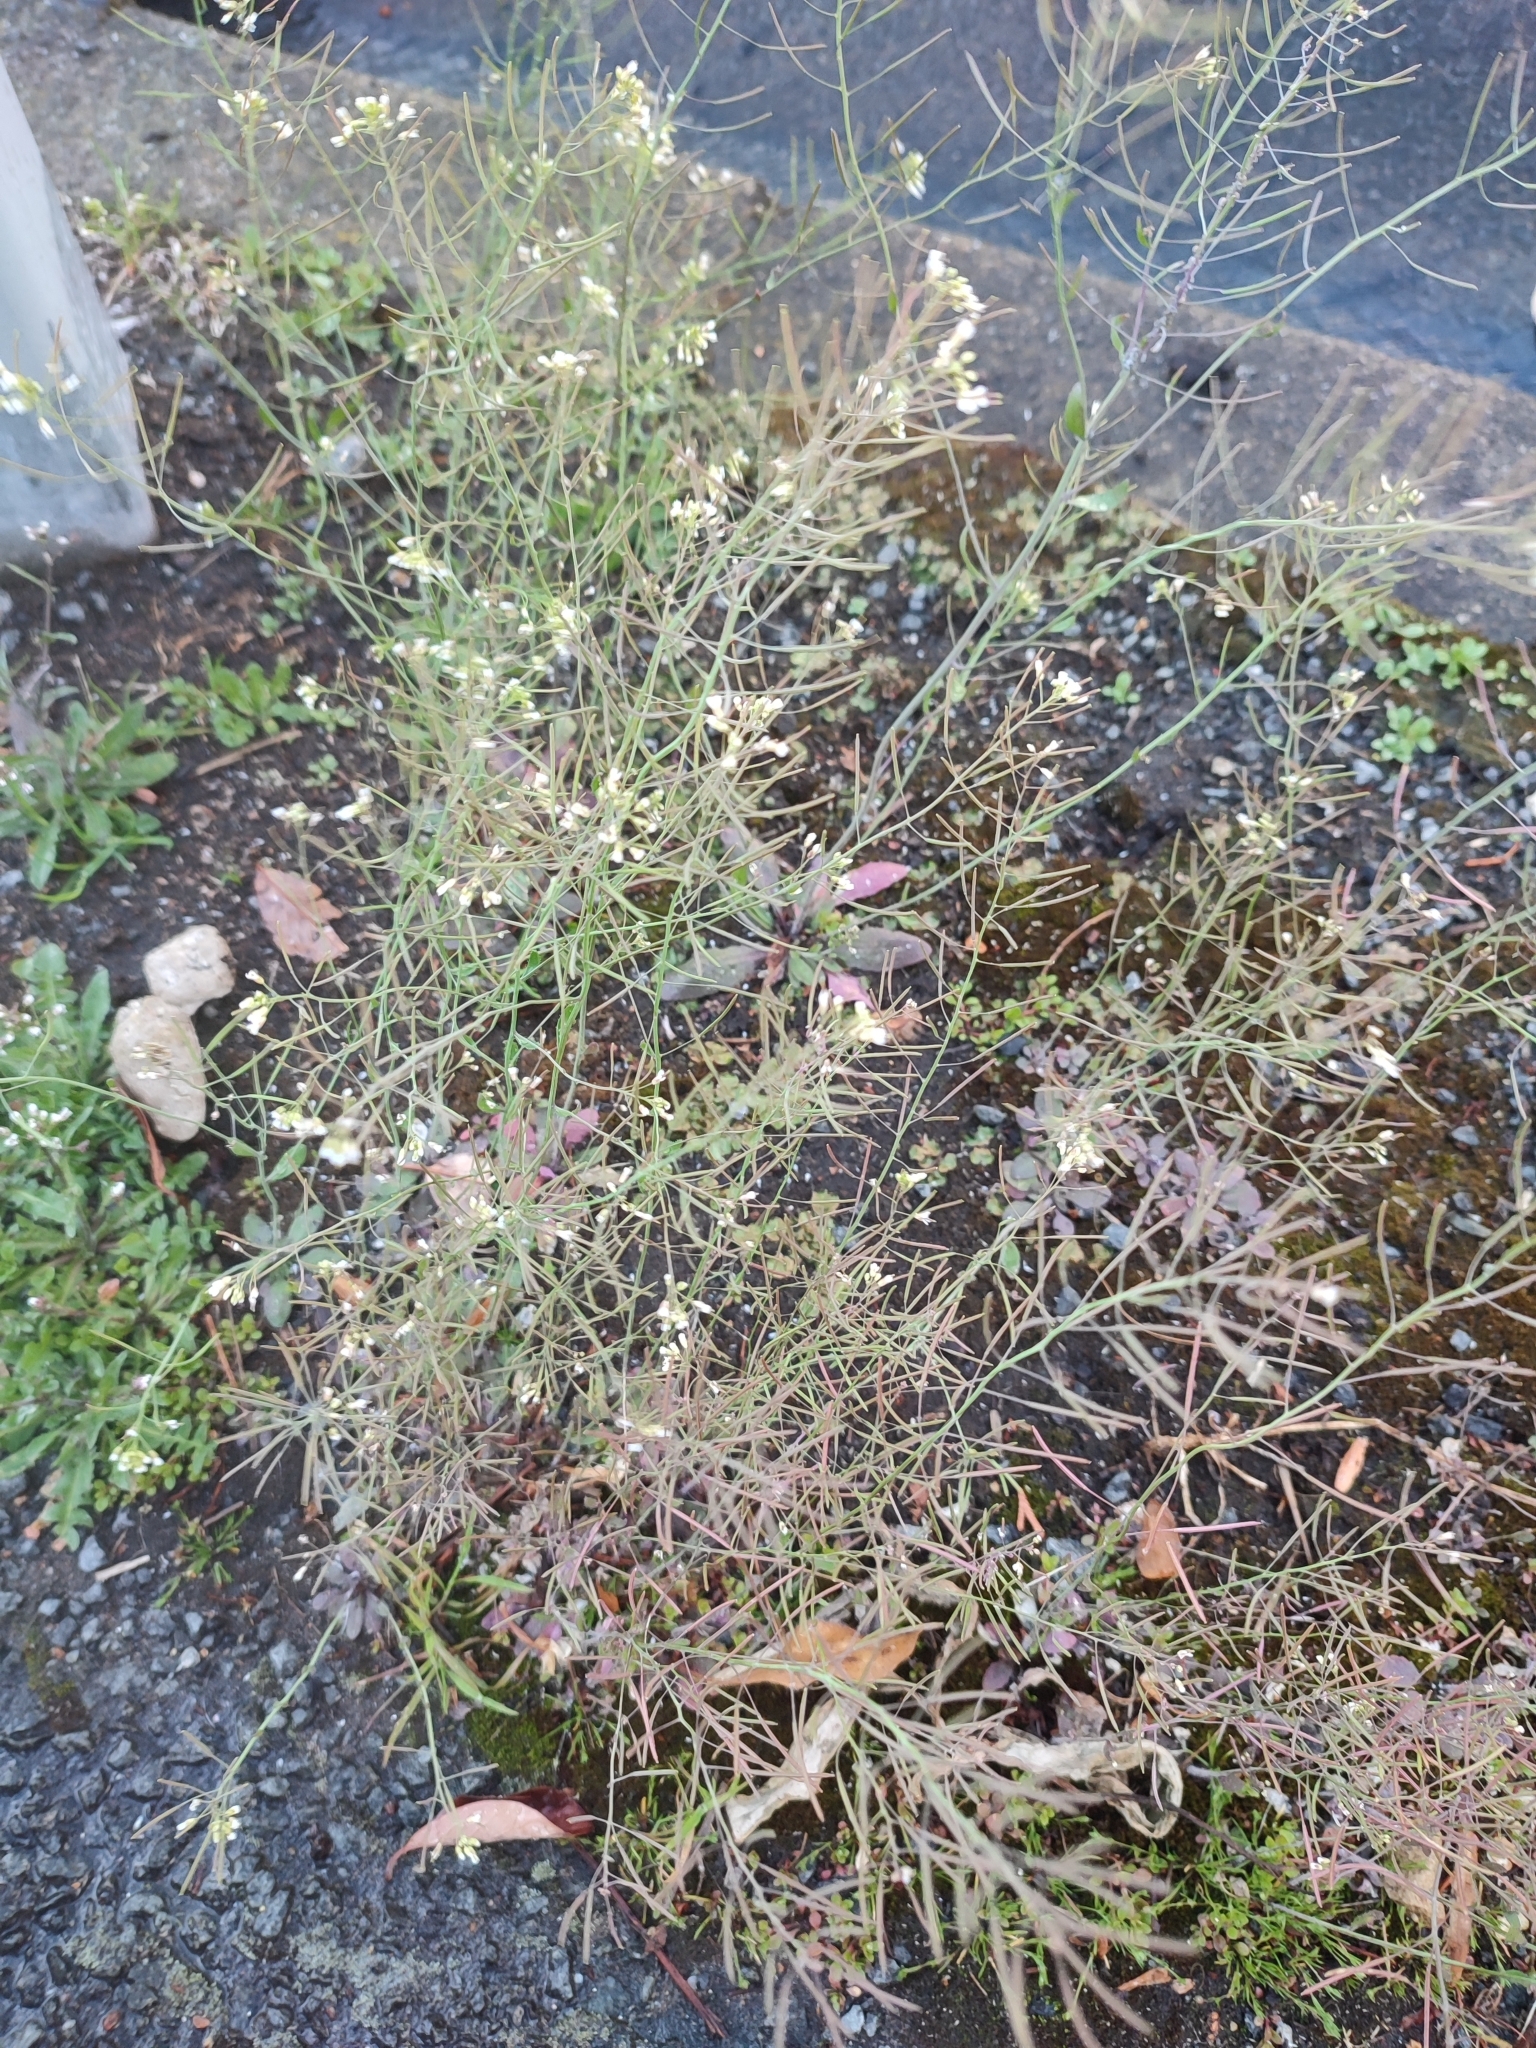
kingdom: Plantae
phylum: Tracheophyta
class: Magnoliopsida
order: Brassicales
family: Brassicaceae
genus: Arabidopsis
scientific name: Arabidopsis thaliana
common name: Thale cress
